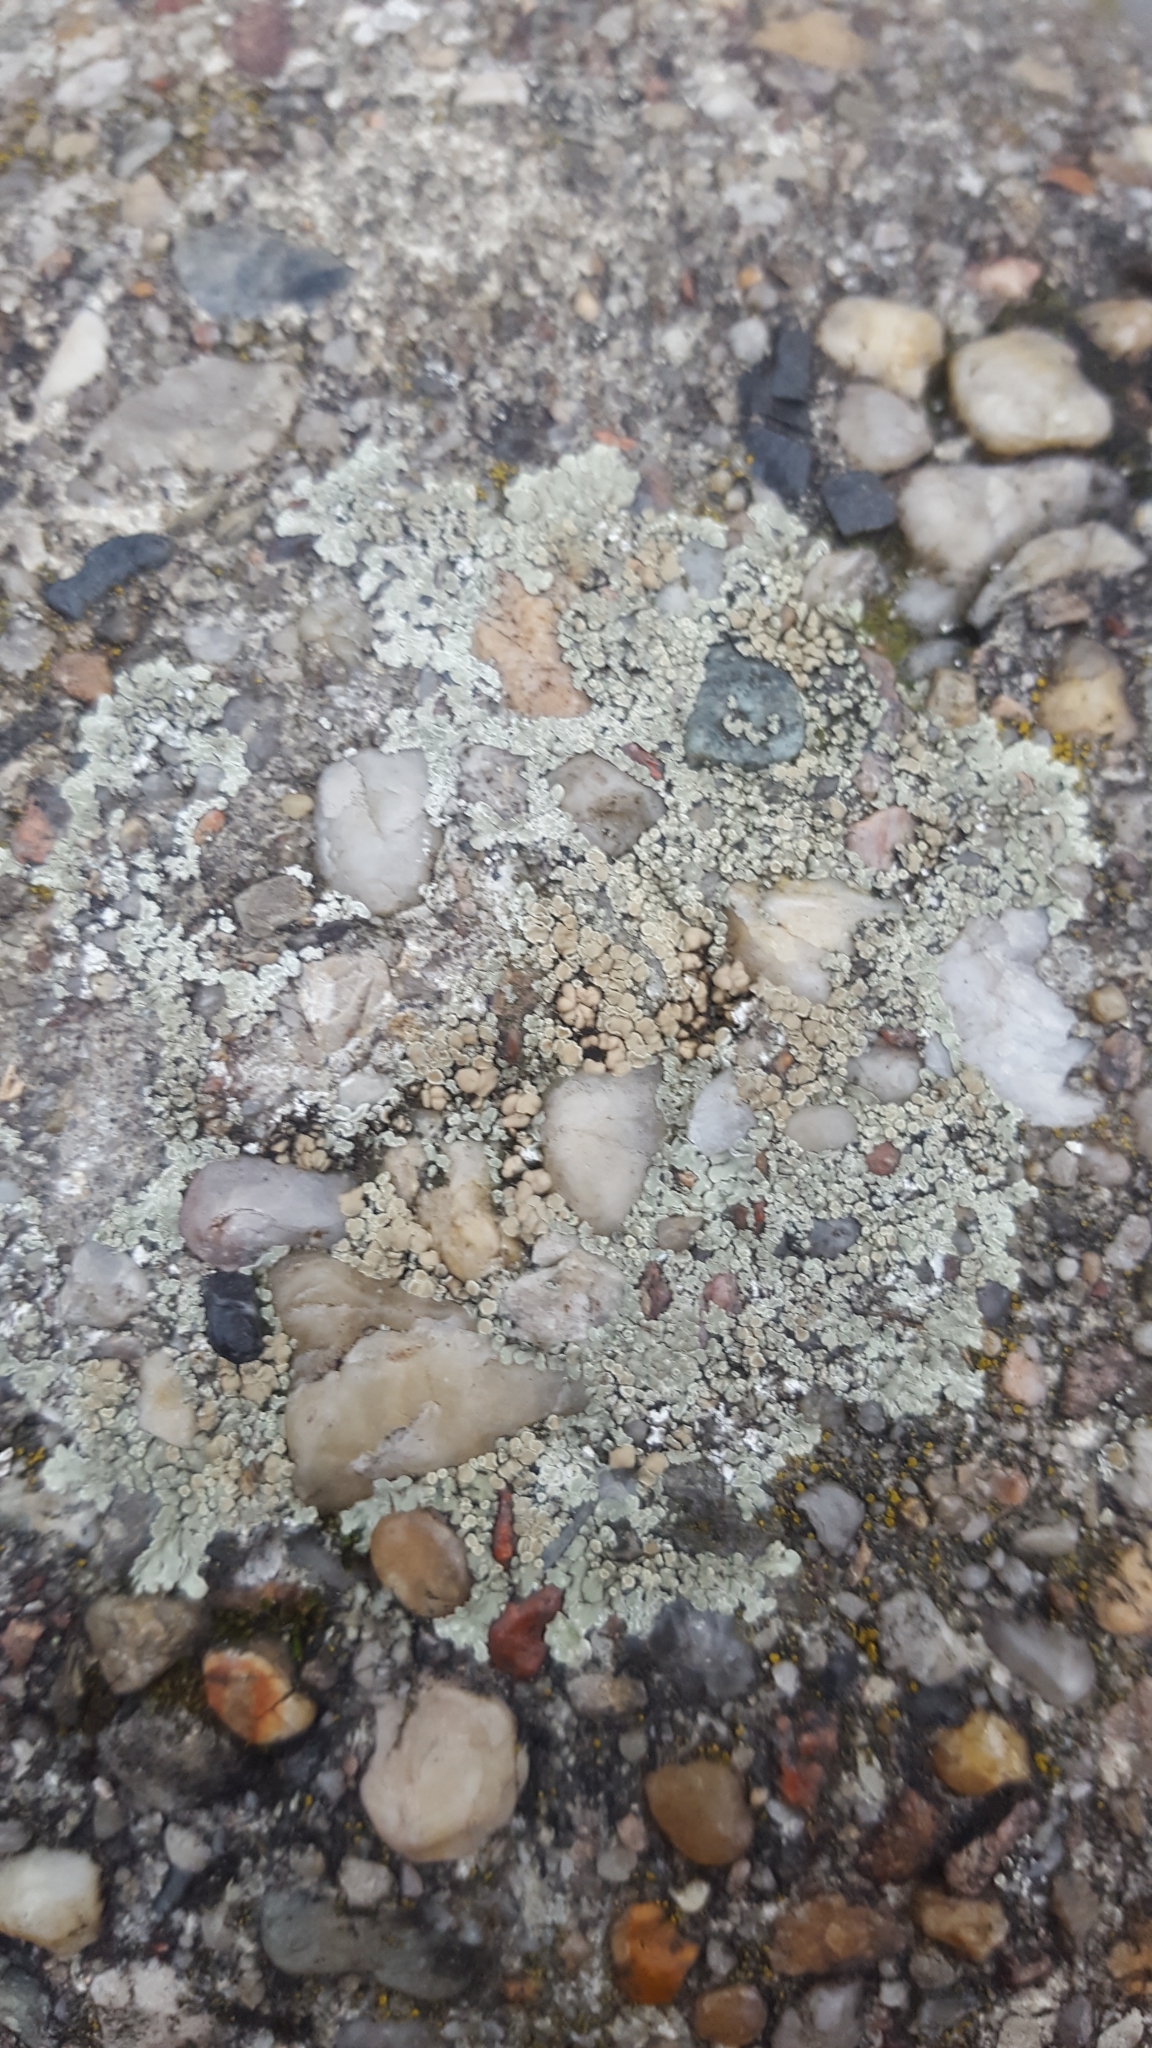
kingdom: Fungi
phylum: Ascomycota
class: Lecanoromycetes
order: Lecanorales
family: Lecanoraceae
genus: Protoparmeliopsis
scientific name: Protoparmeliopsis muralis
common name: Stonewall rim lichen
